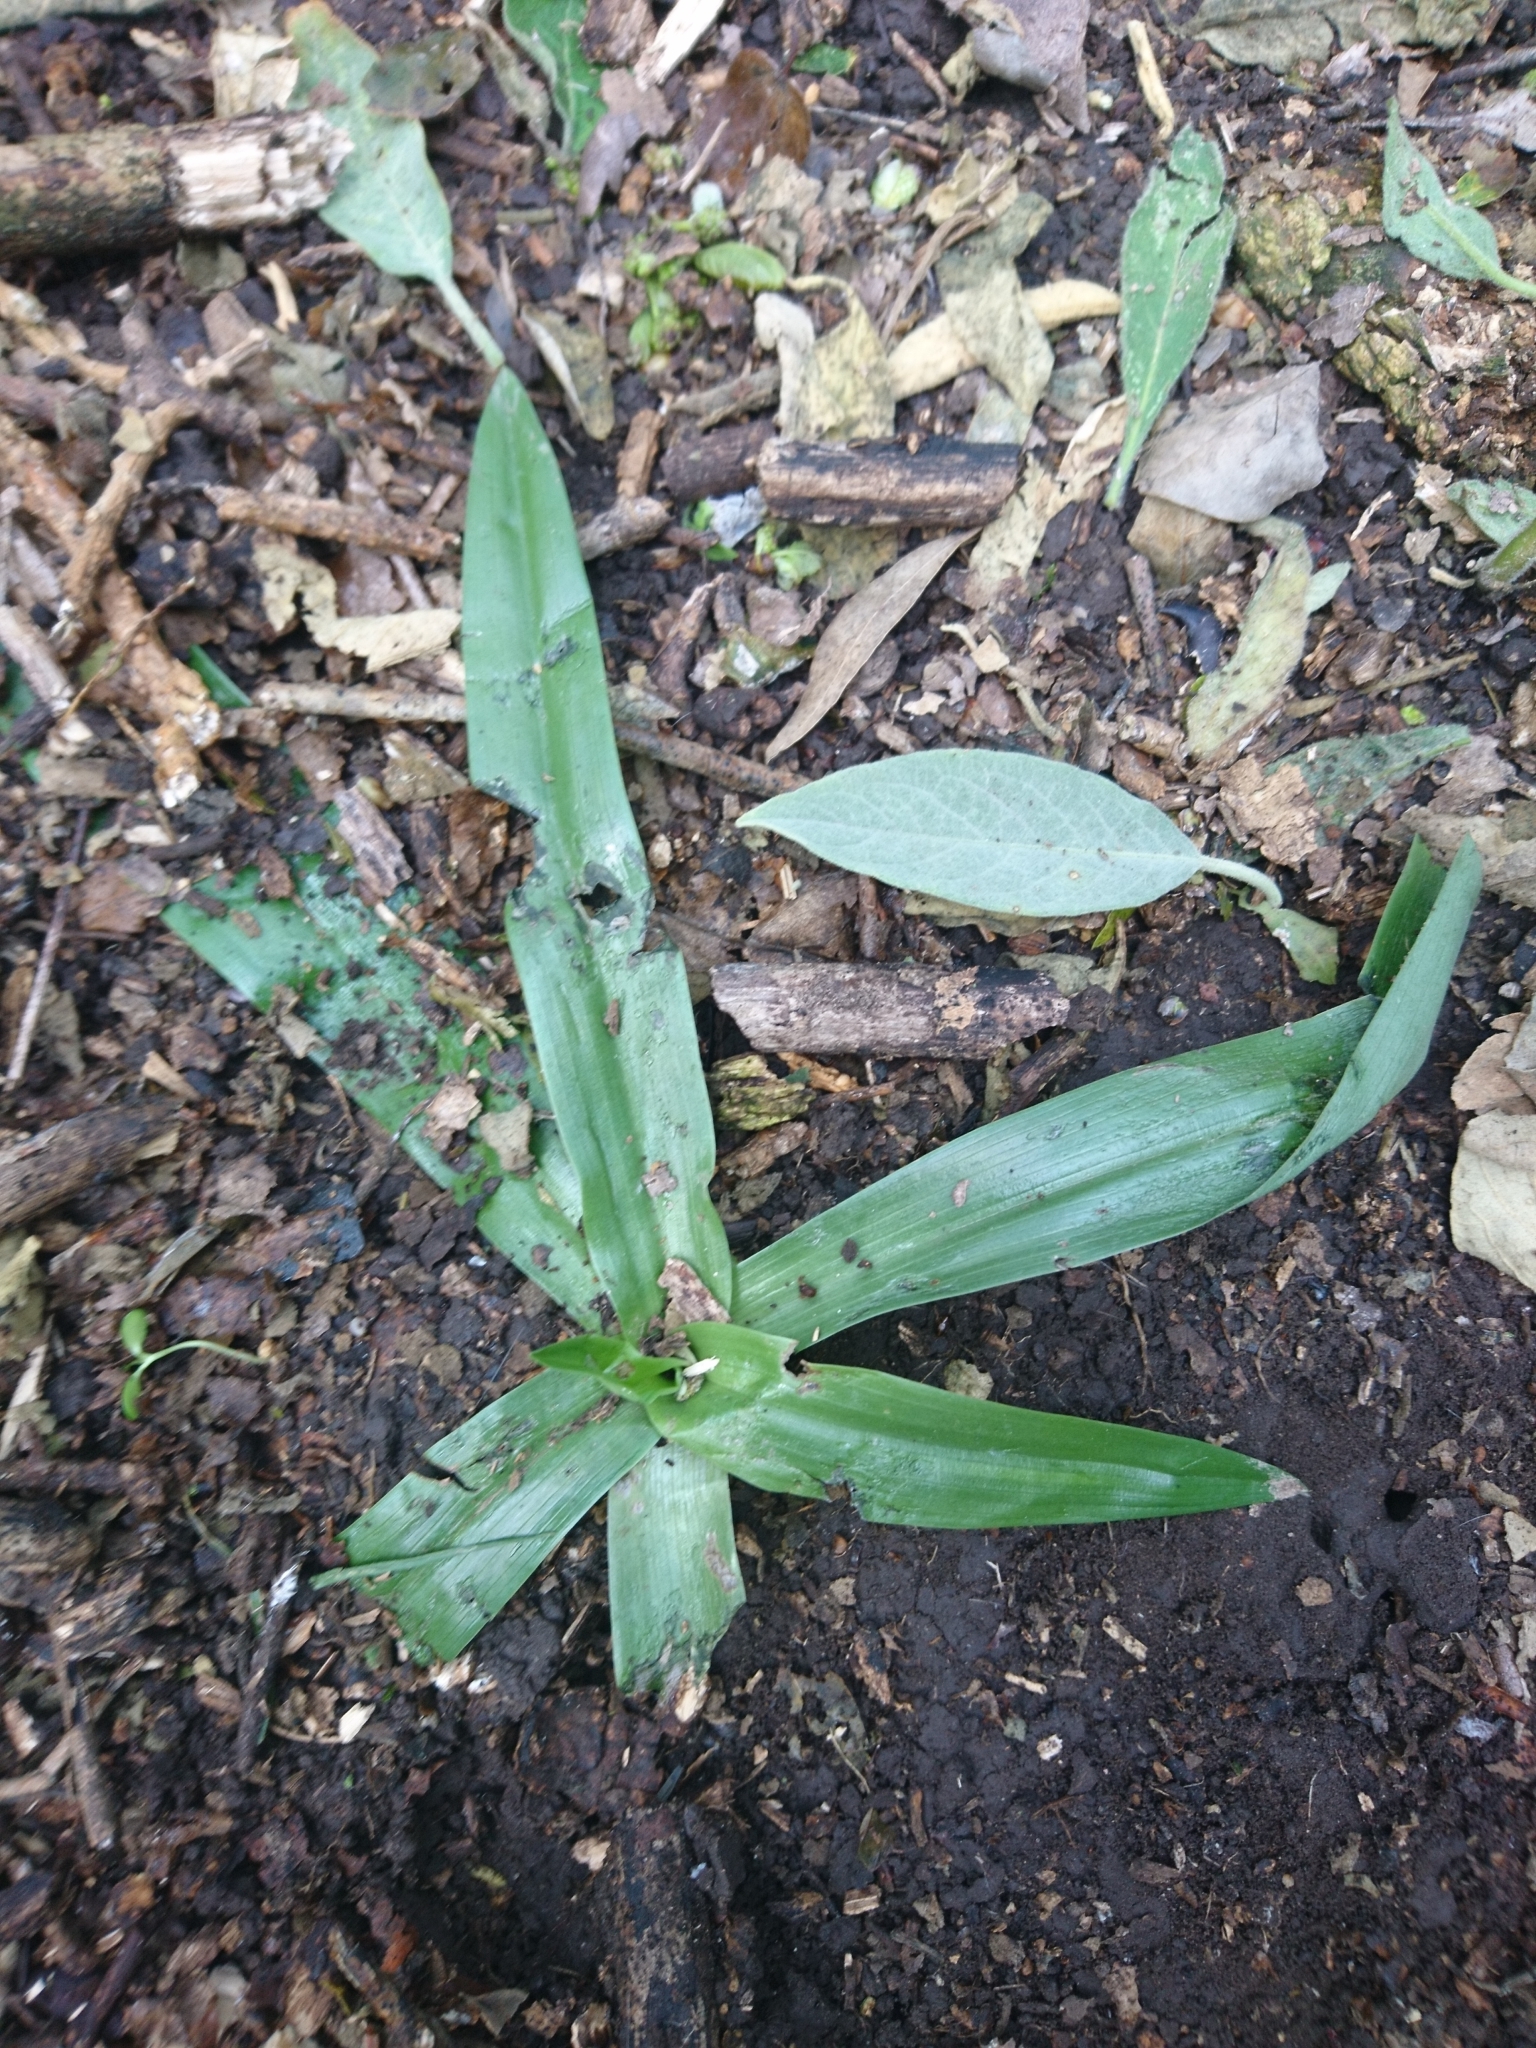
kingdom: Plantae
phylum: Tracheophyta
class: Liliopsida
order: Asparagales
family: Orchidaceae
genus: Chloraea
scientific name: Chloraea membranacea
